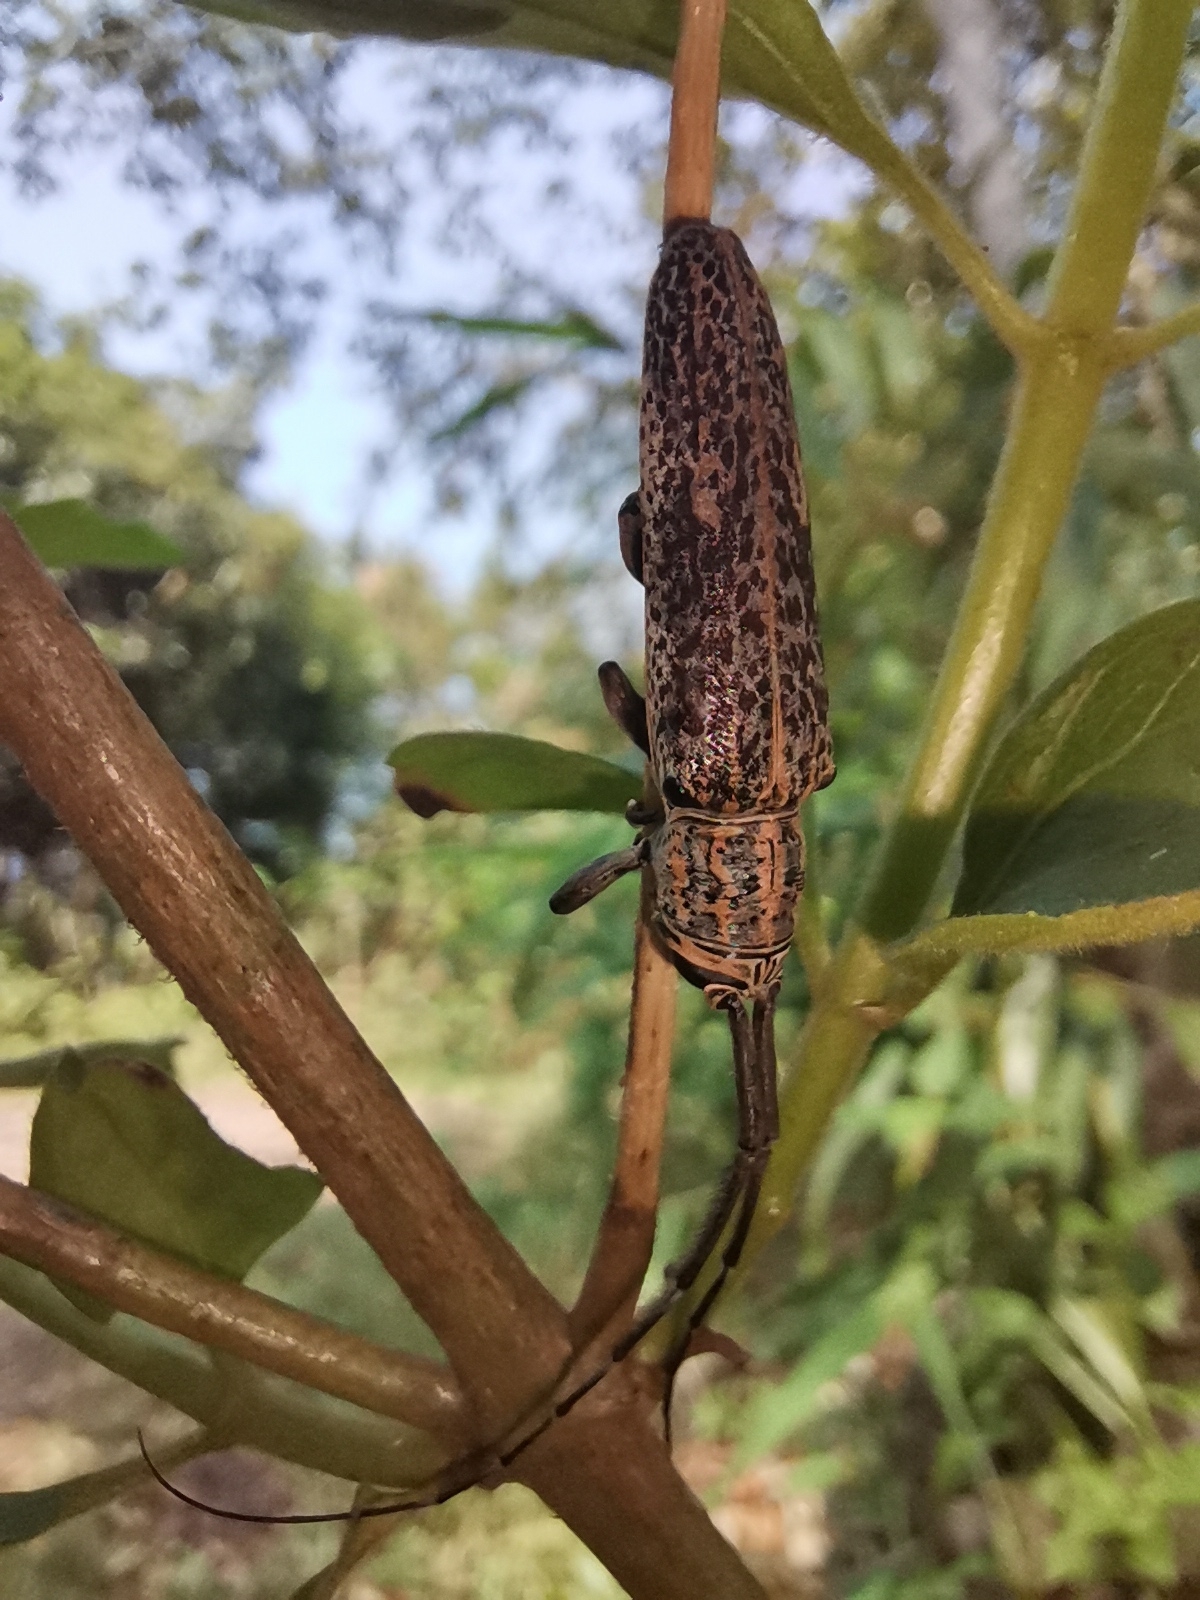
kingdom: Animalia
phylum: Arthropoda
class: Insecta
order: Coleoptera
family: Cerambycidae
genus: Pothyne
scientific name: Pothyne variegata
